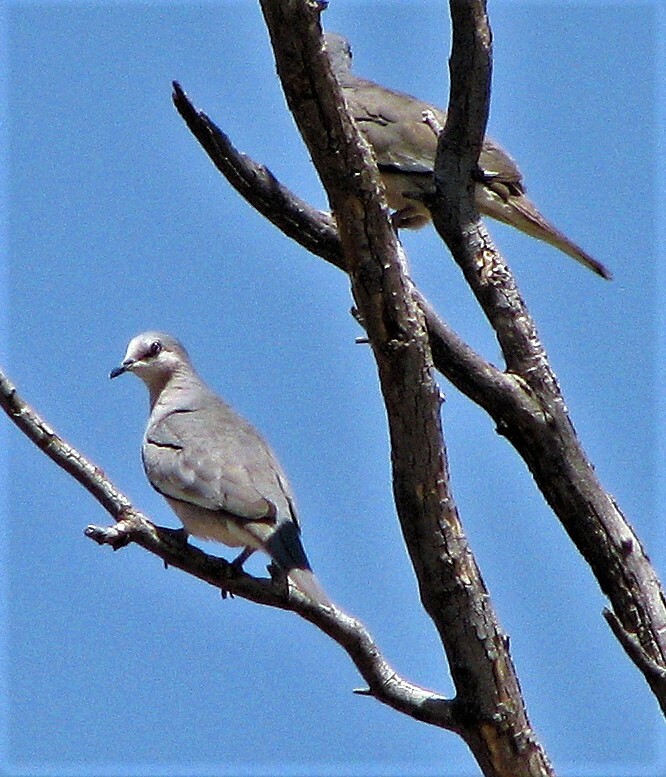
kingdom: Animalia
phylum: Chordata
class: Aves
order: Columbiformes
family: Columbidae
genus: Columbina
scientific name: Columbina picui
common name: Picui ground dove
